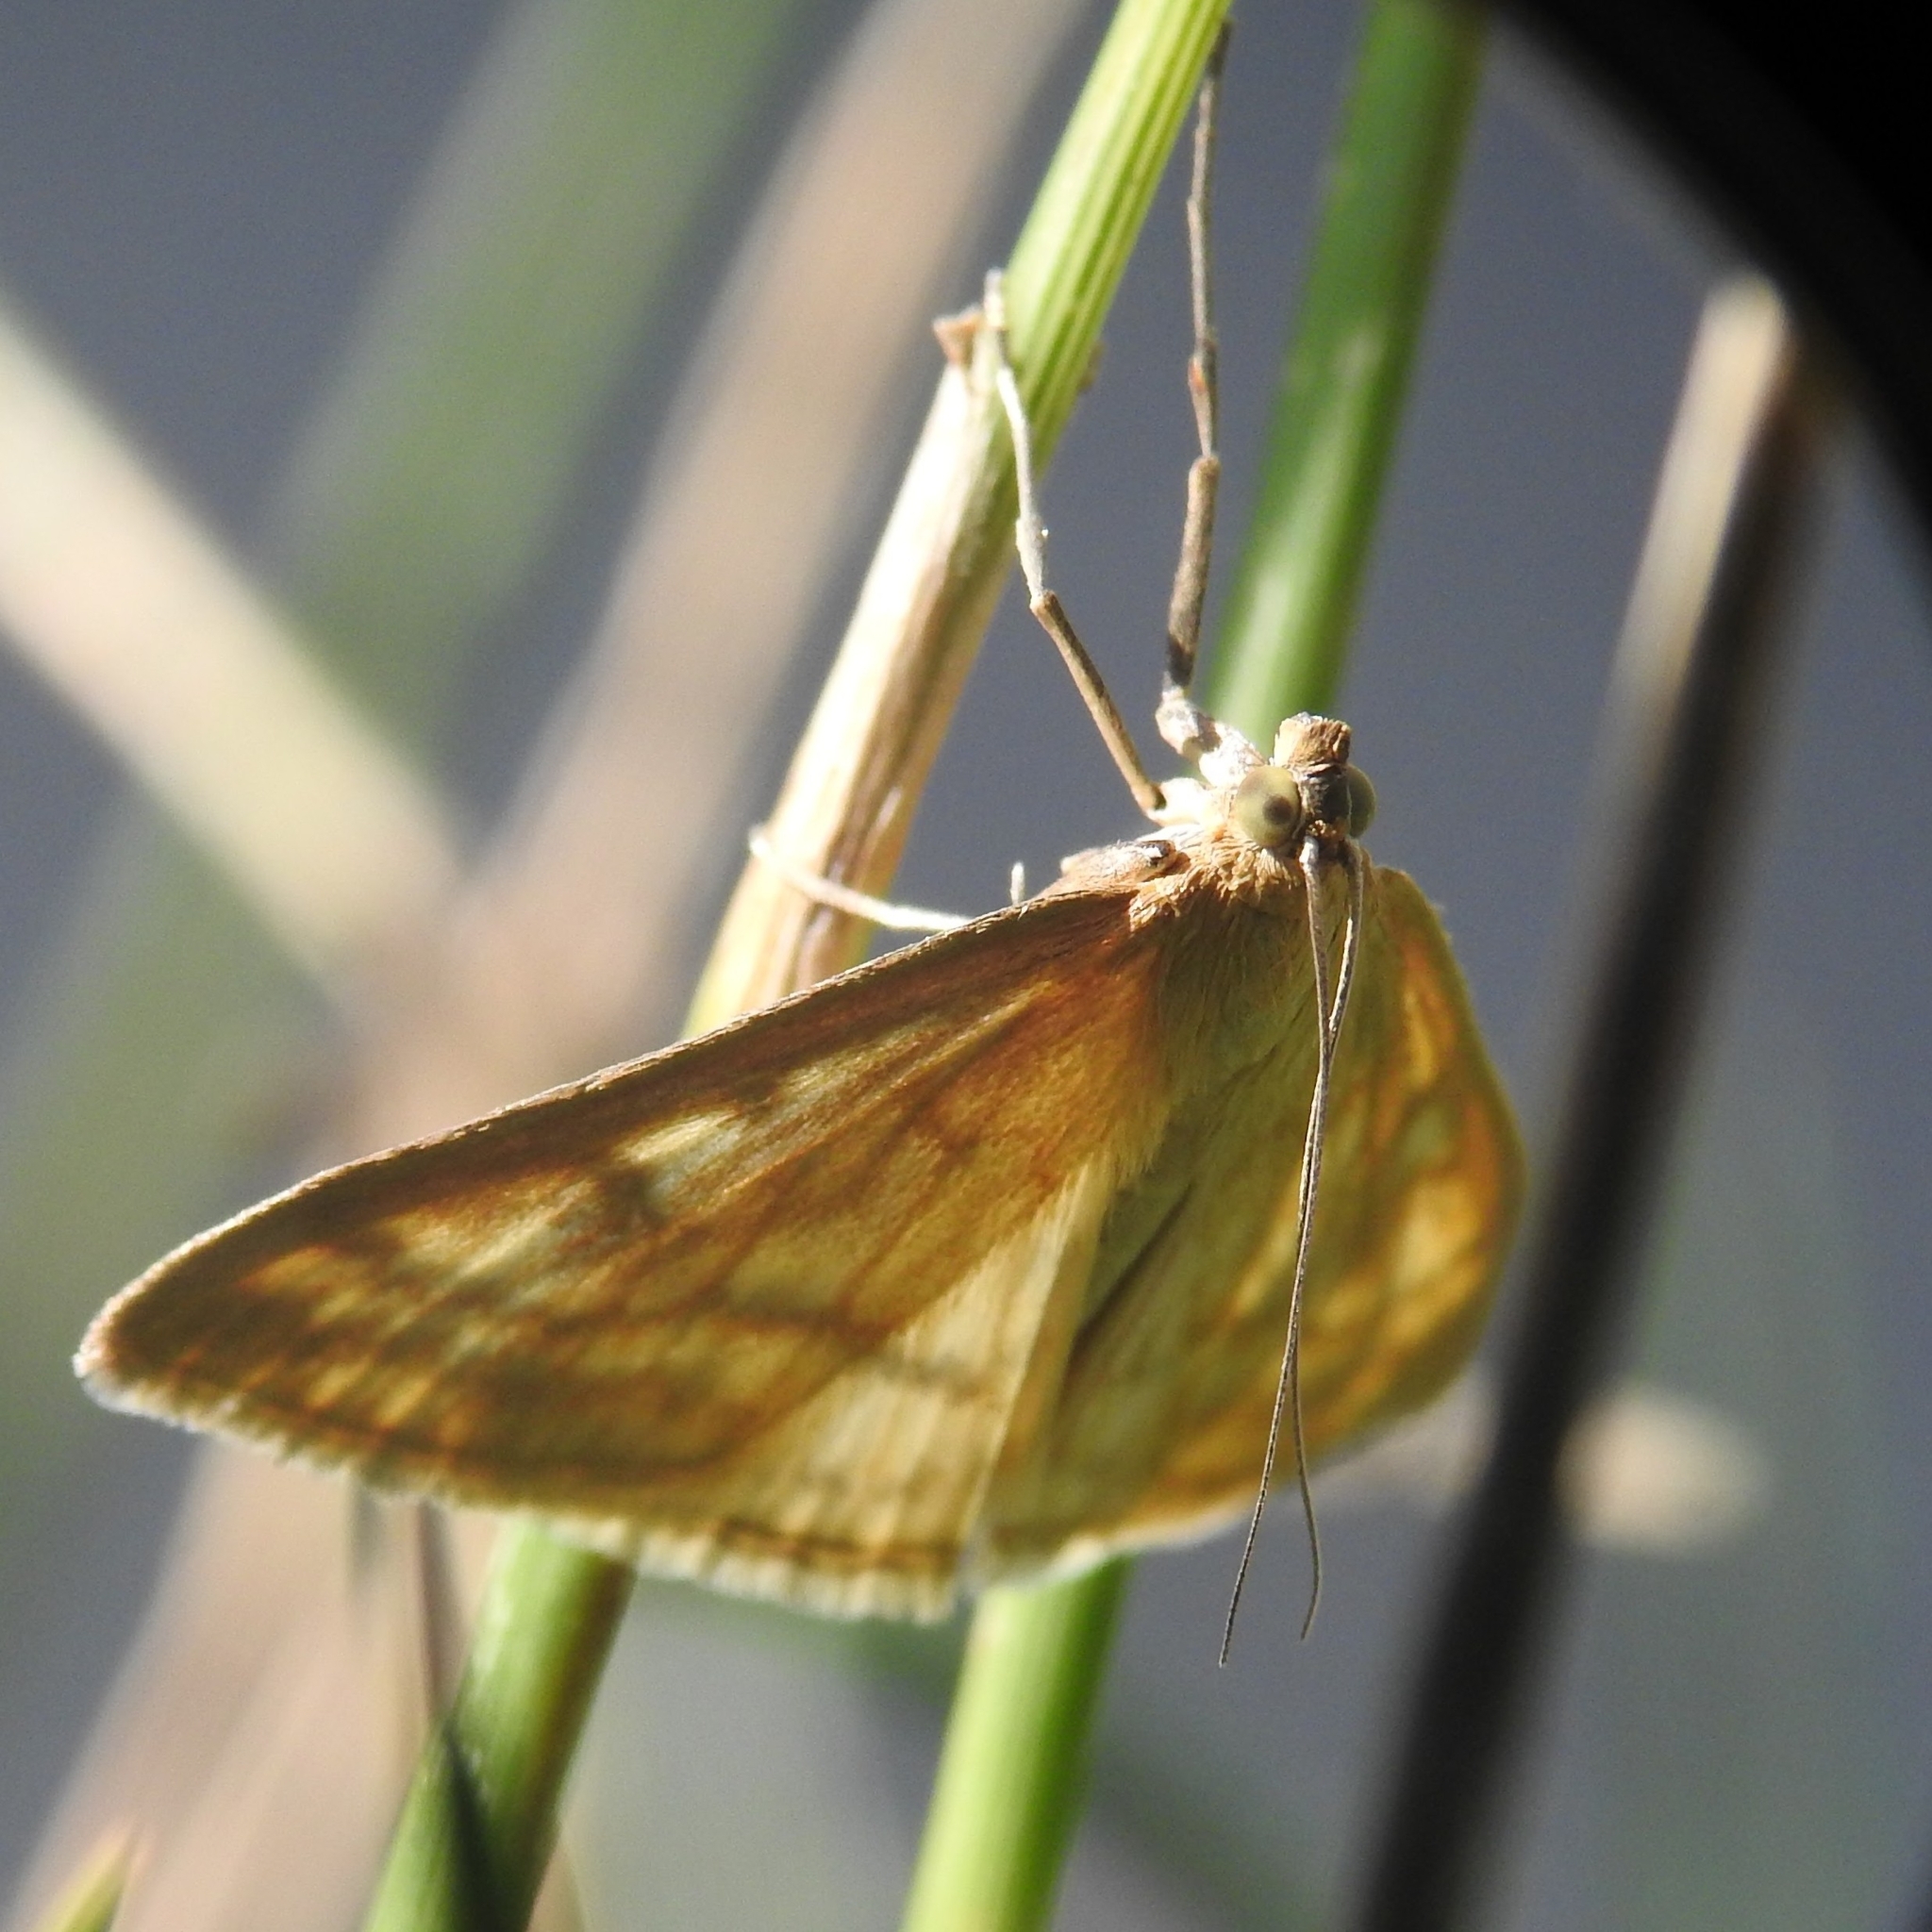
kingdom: Animalia
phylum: Arthropoda
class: Insecta
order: Lepidoptera
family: Crambidae
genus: Sitochroa
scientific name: Sitochroa verticalis
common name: Lesser pearl
